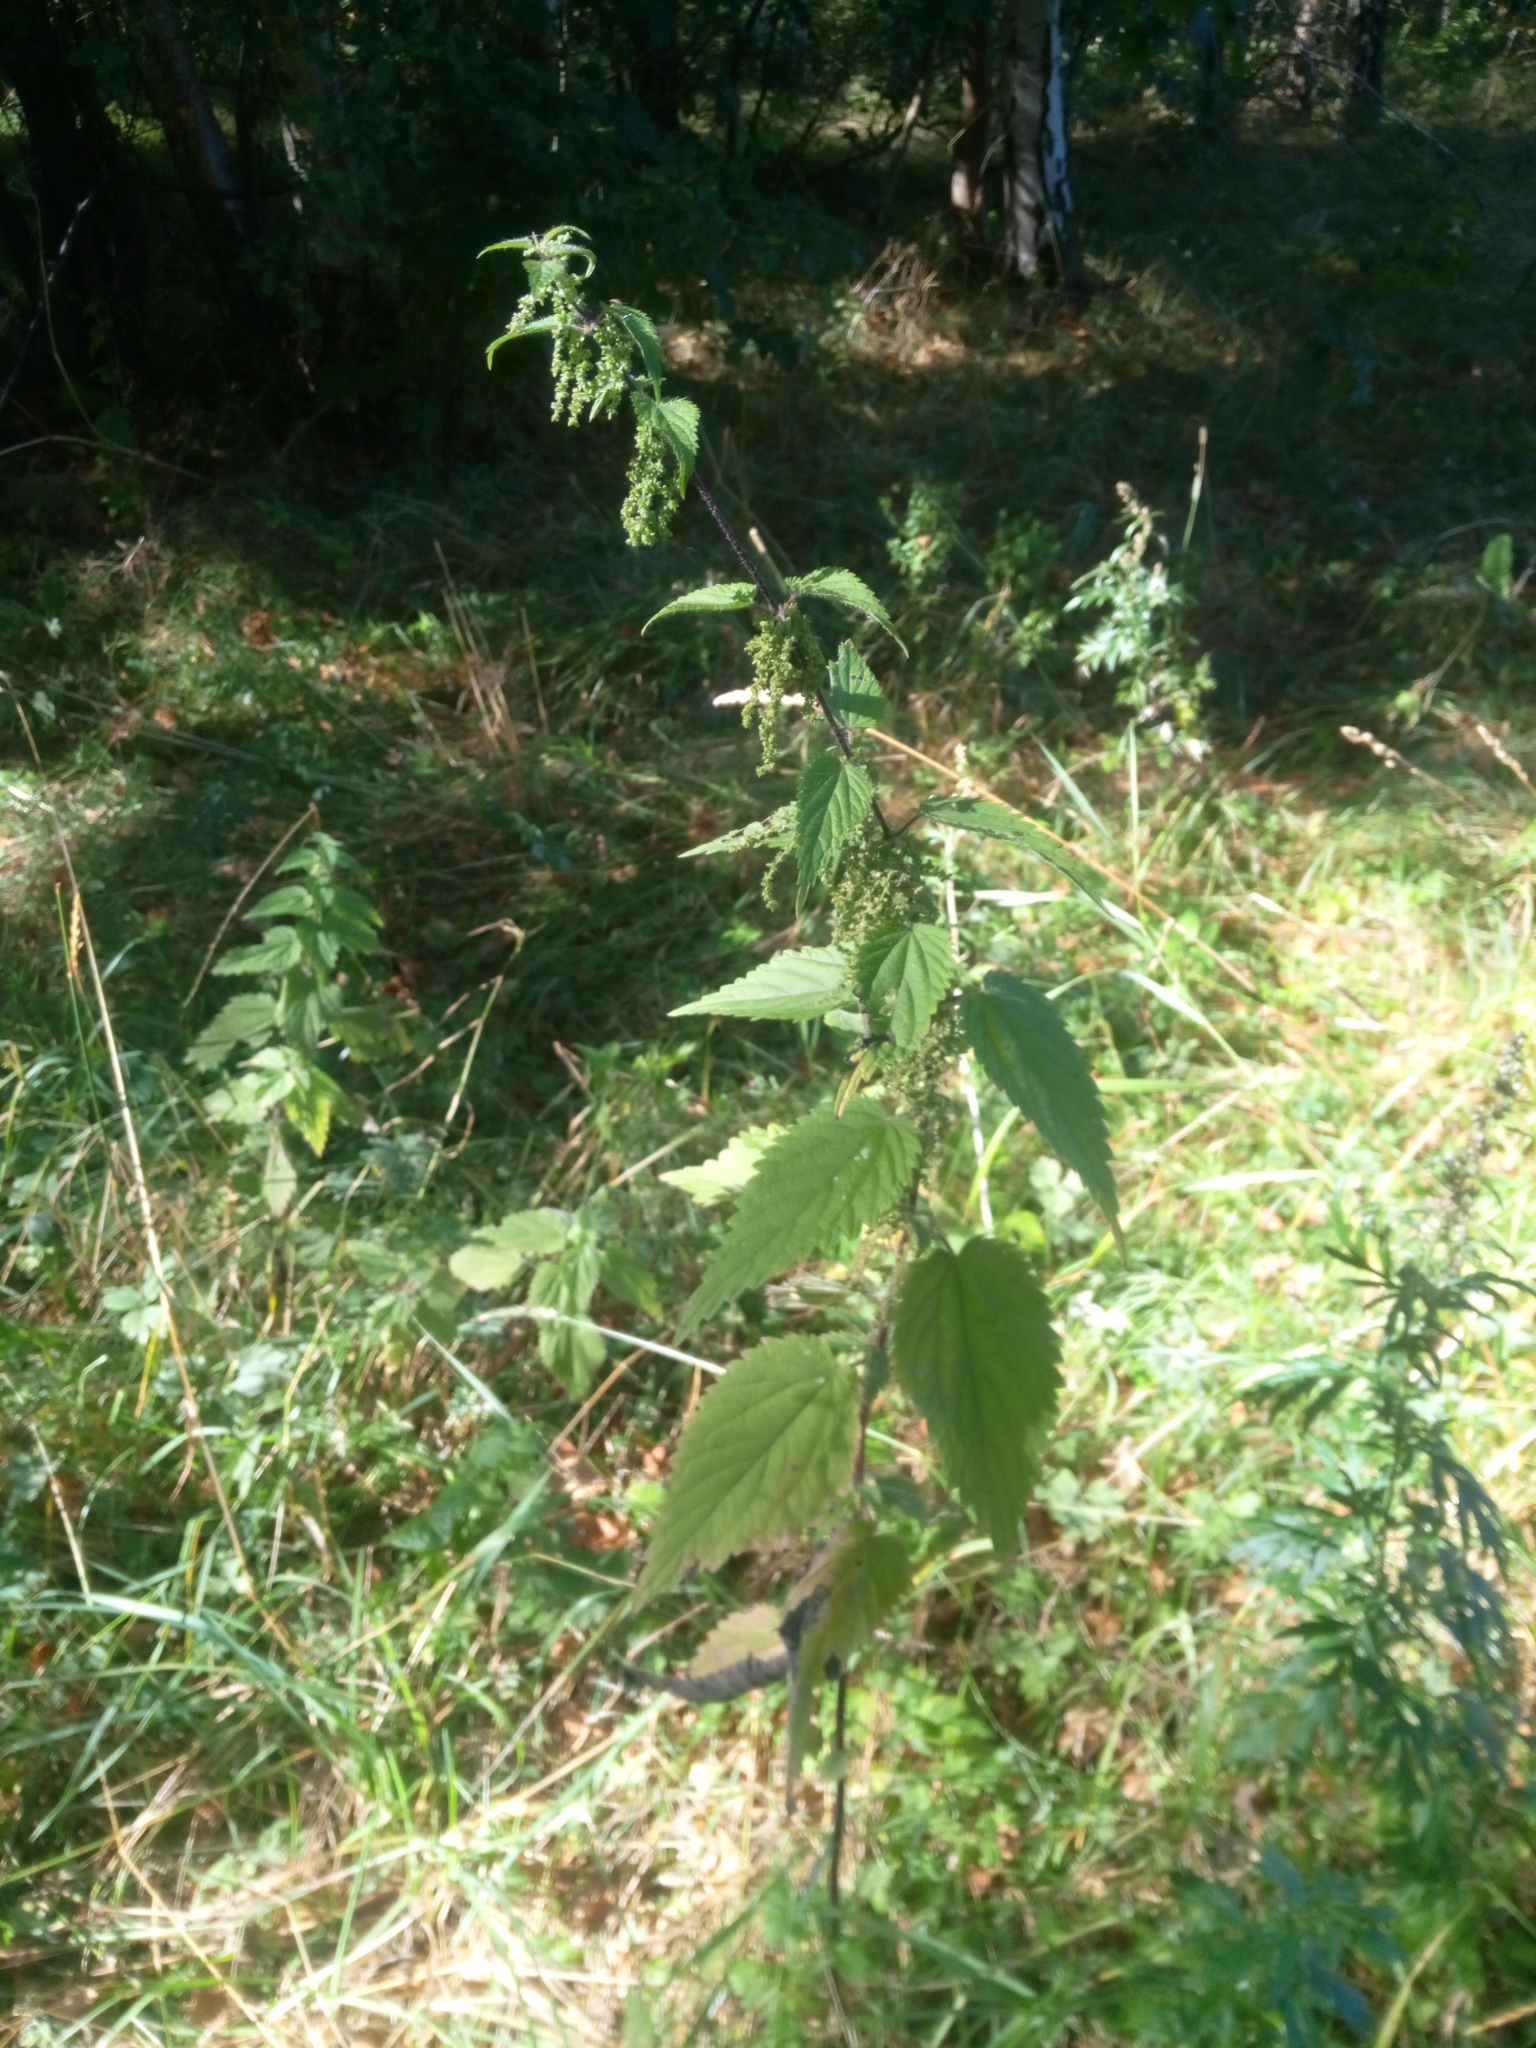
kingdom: Plantae
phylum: Tracheophyta
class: Magnoliopsida
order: Rosales
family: Urticaceae
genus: Urtica
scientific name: Urtica dioica
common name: Common nettle
